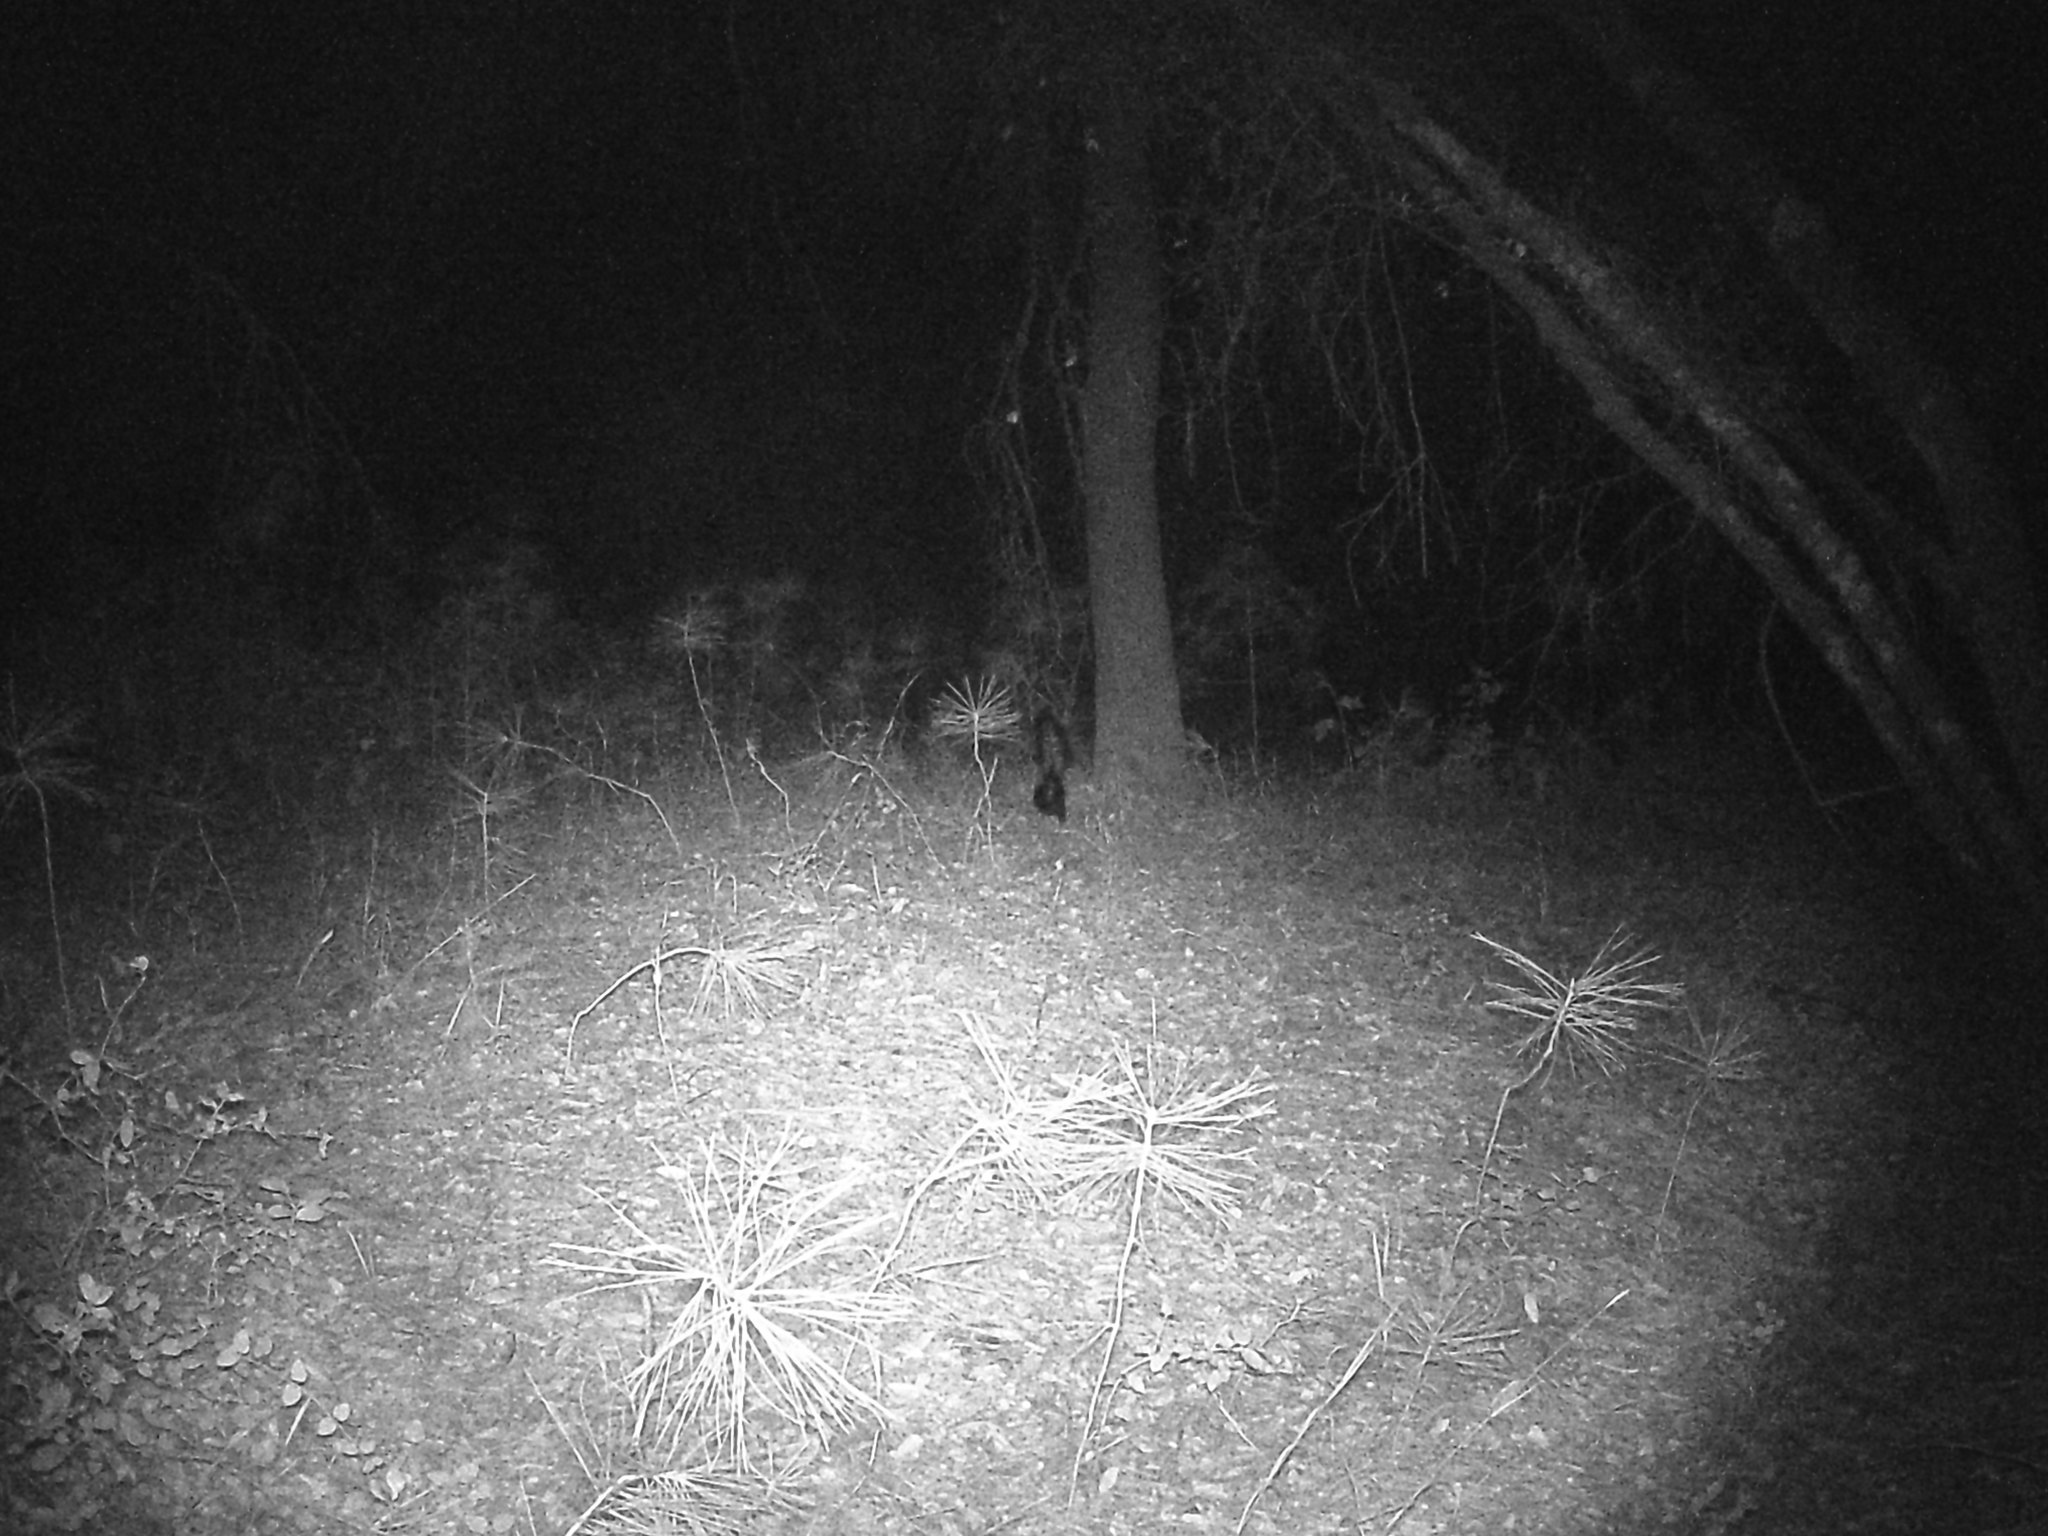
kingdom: Animalia
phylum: Chordata
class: Mammalia
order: Carnivora
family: Mephitidae
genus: Mephitis
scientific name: Mephitis mephitis
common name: Striped skunk
